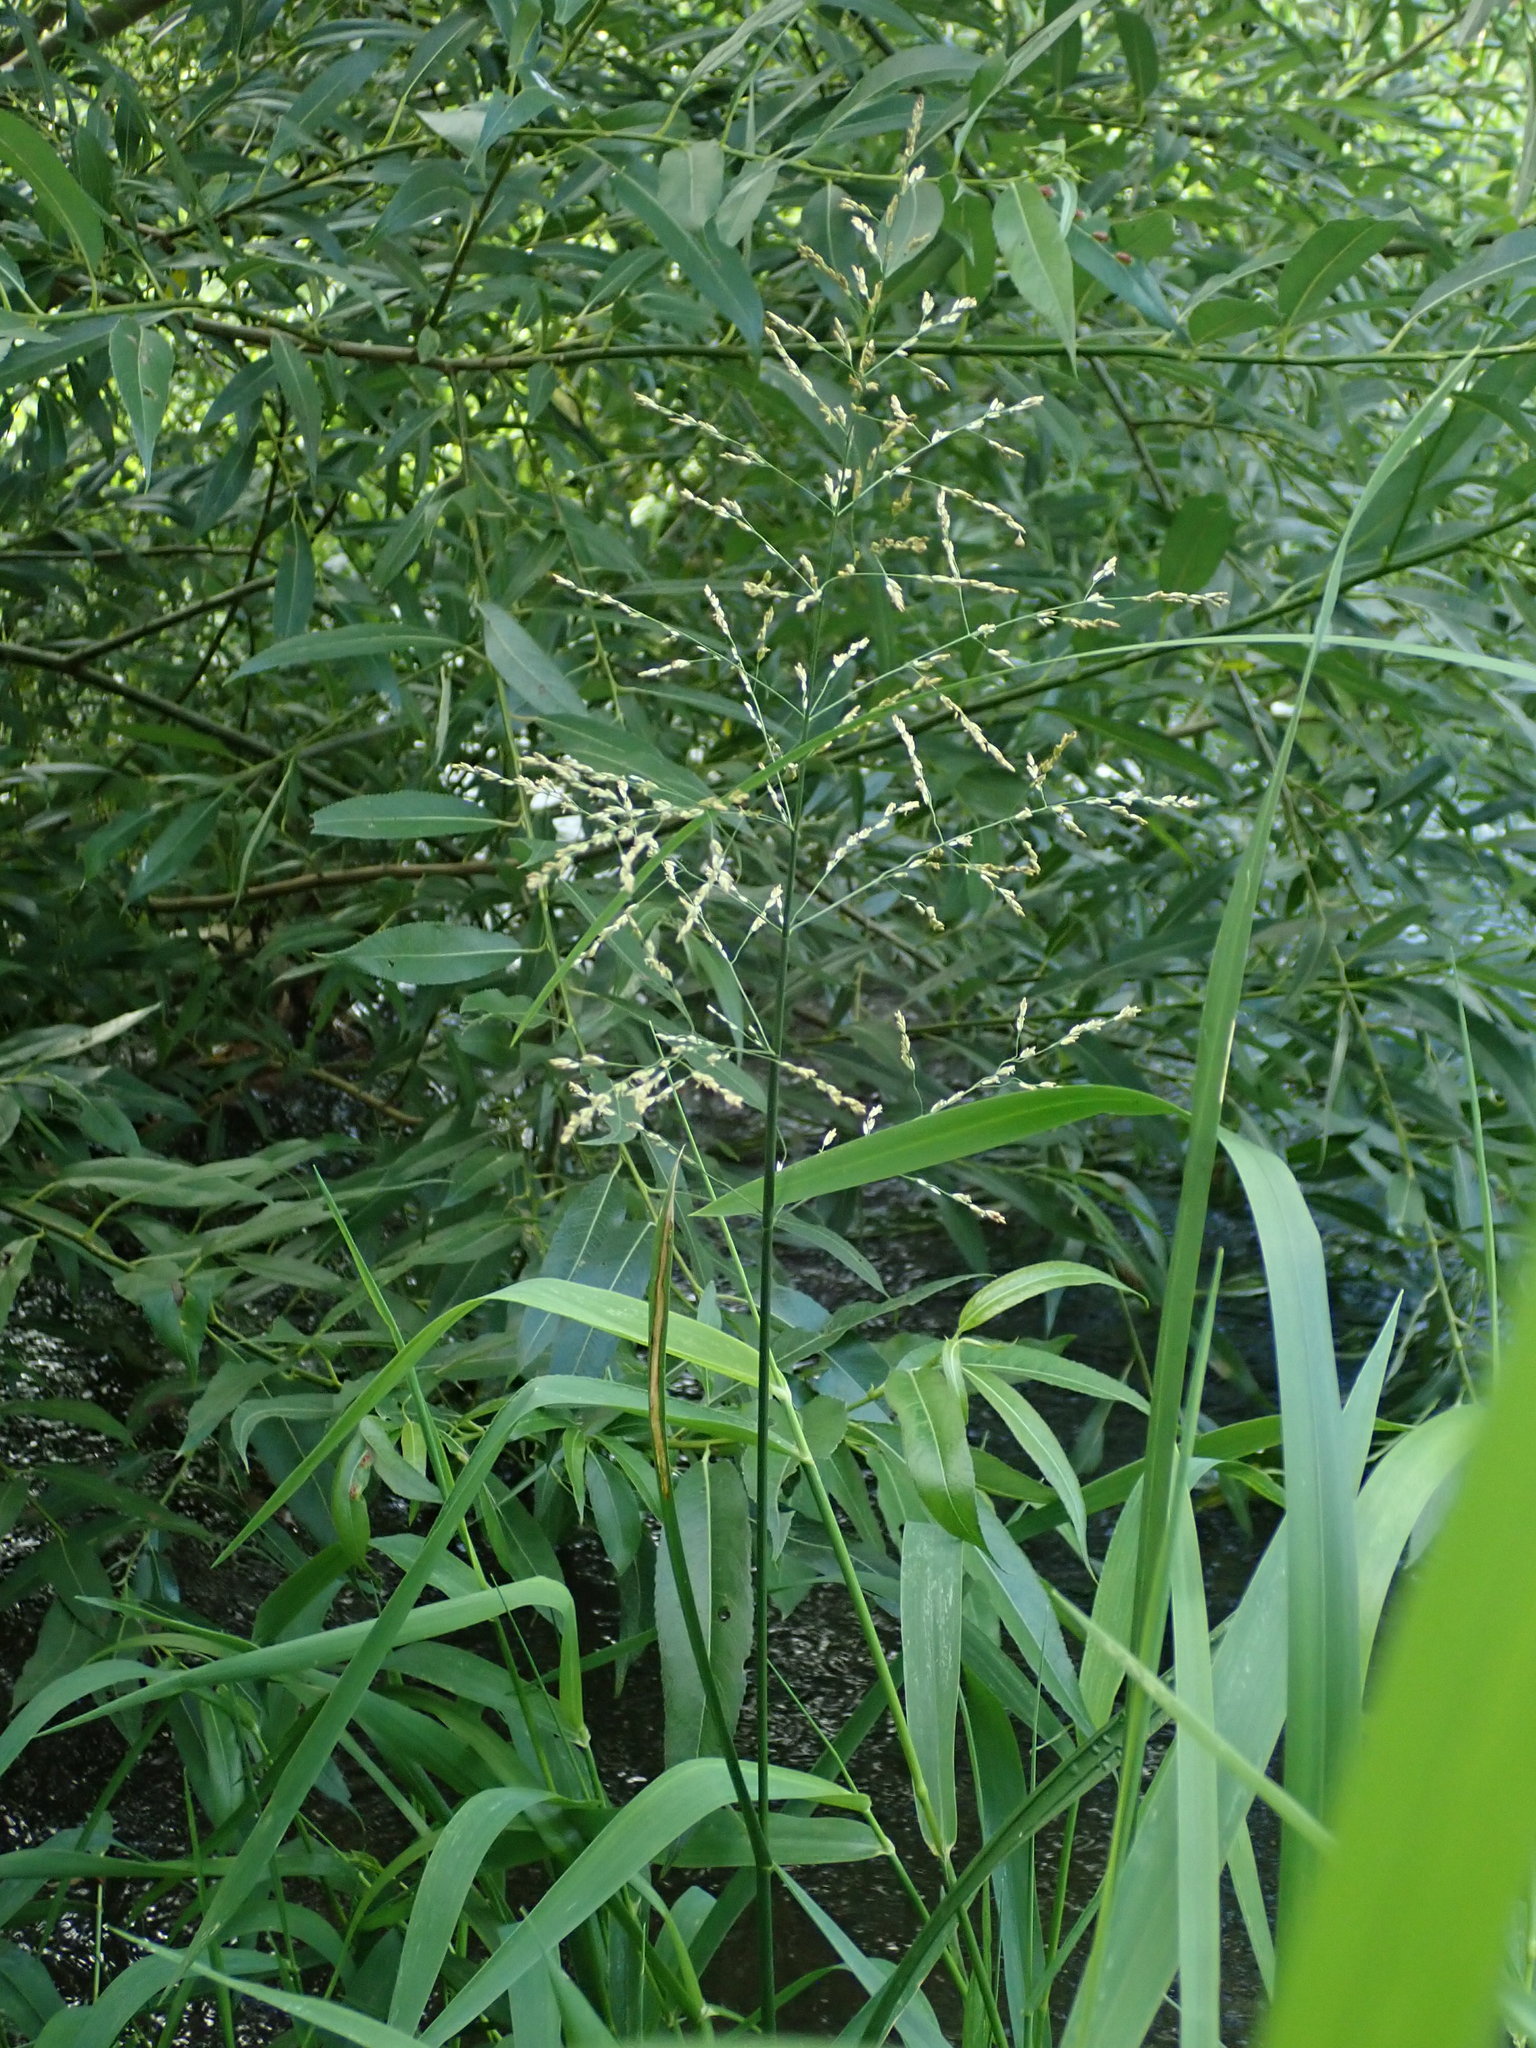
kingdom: Plantae
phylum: Tracheophyta
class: Liliopsida
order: Poales
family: Poaceae
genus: Glyceria
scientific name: Glyceria maxima
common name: Reed mannagrass
